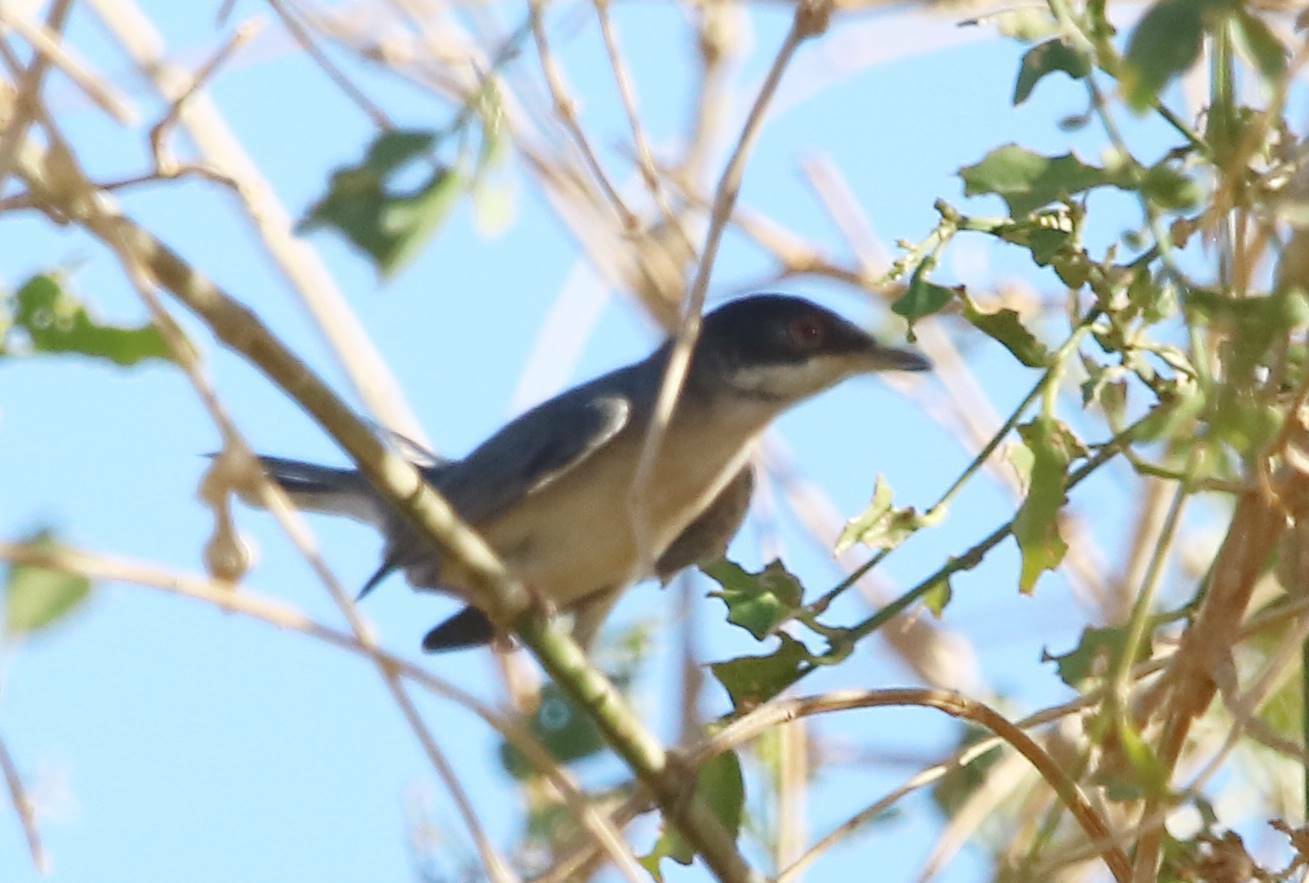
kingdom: Animalia
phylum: Chordata
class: Aves
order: Passeriformes
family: Sylviidae
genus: Curruca
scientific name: Curruca melanocephala
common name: Sardinian warbler
